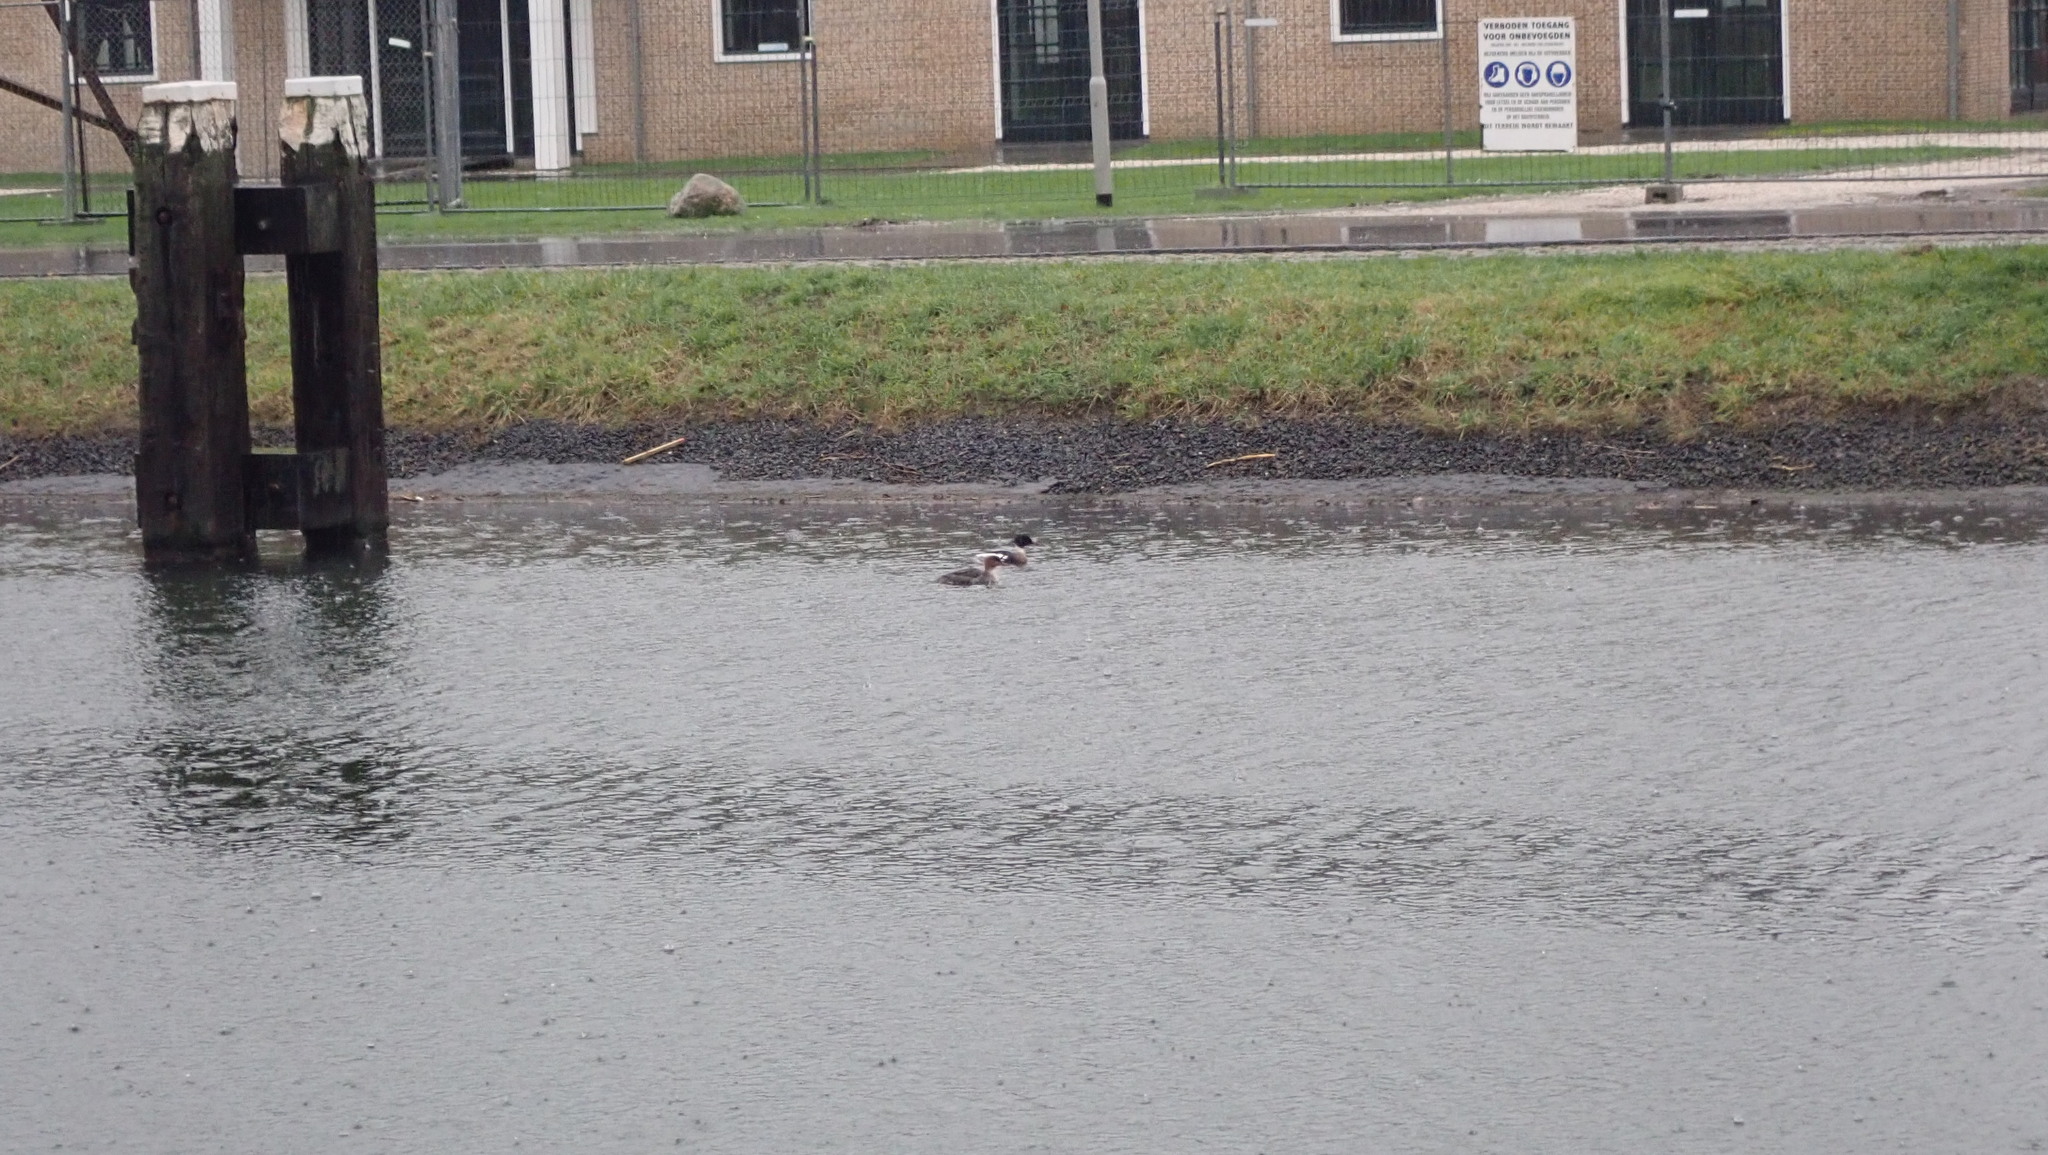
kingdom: Animalia
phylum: Chordata
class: Aves
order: Anseriformes
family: Anatidae
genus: Mergus
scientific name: Mergus serrator
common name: Red-breasted merganser
